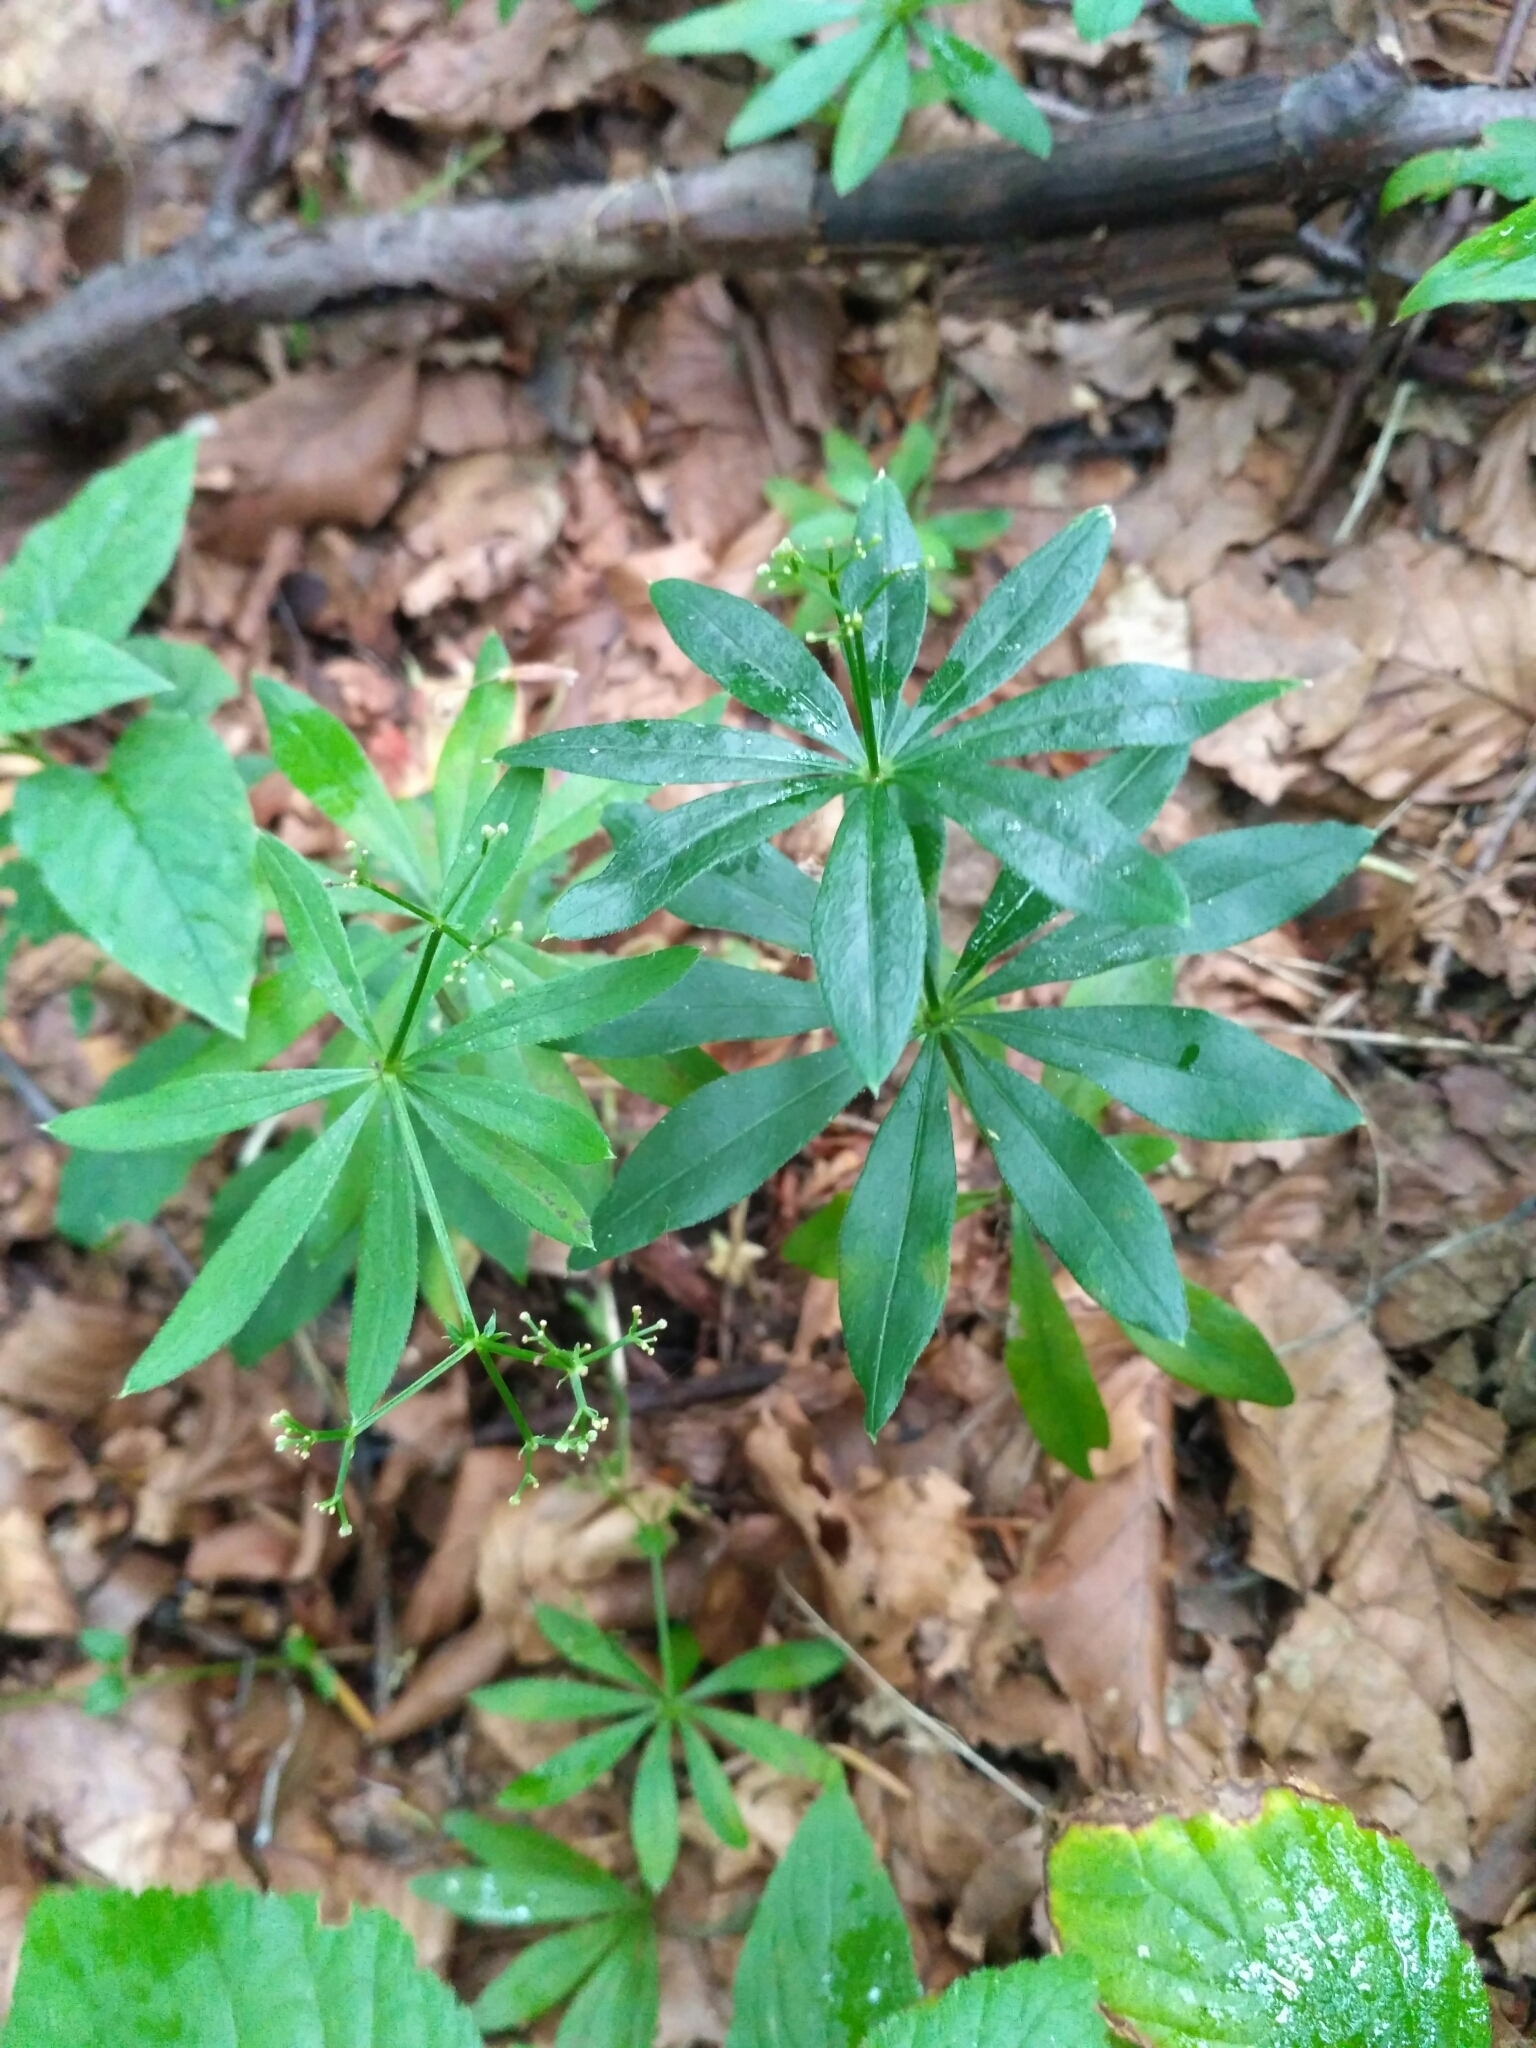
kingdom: Plantae
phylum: Tracheophyta
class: Magnoliopsida
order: Gentianales
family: Rubiaceae
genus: Galium
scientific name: Galium odoratum
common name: Sweet woodruff
